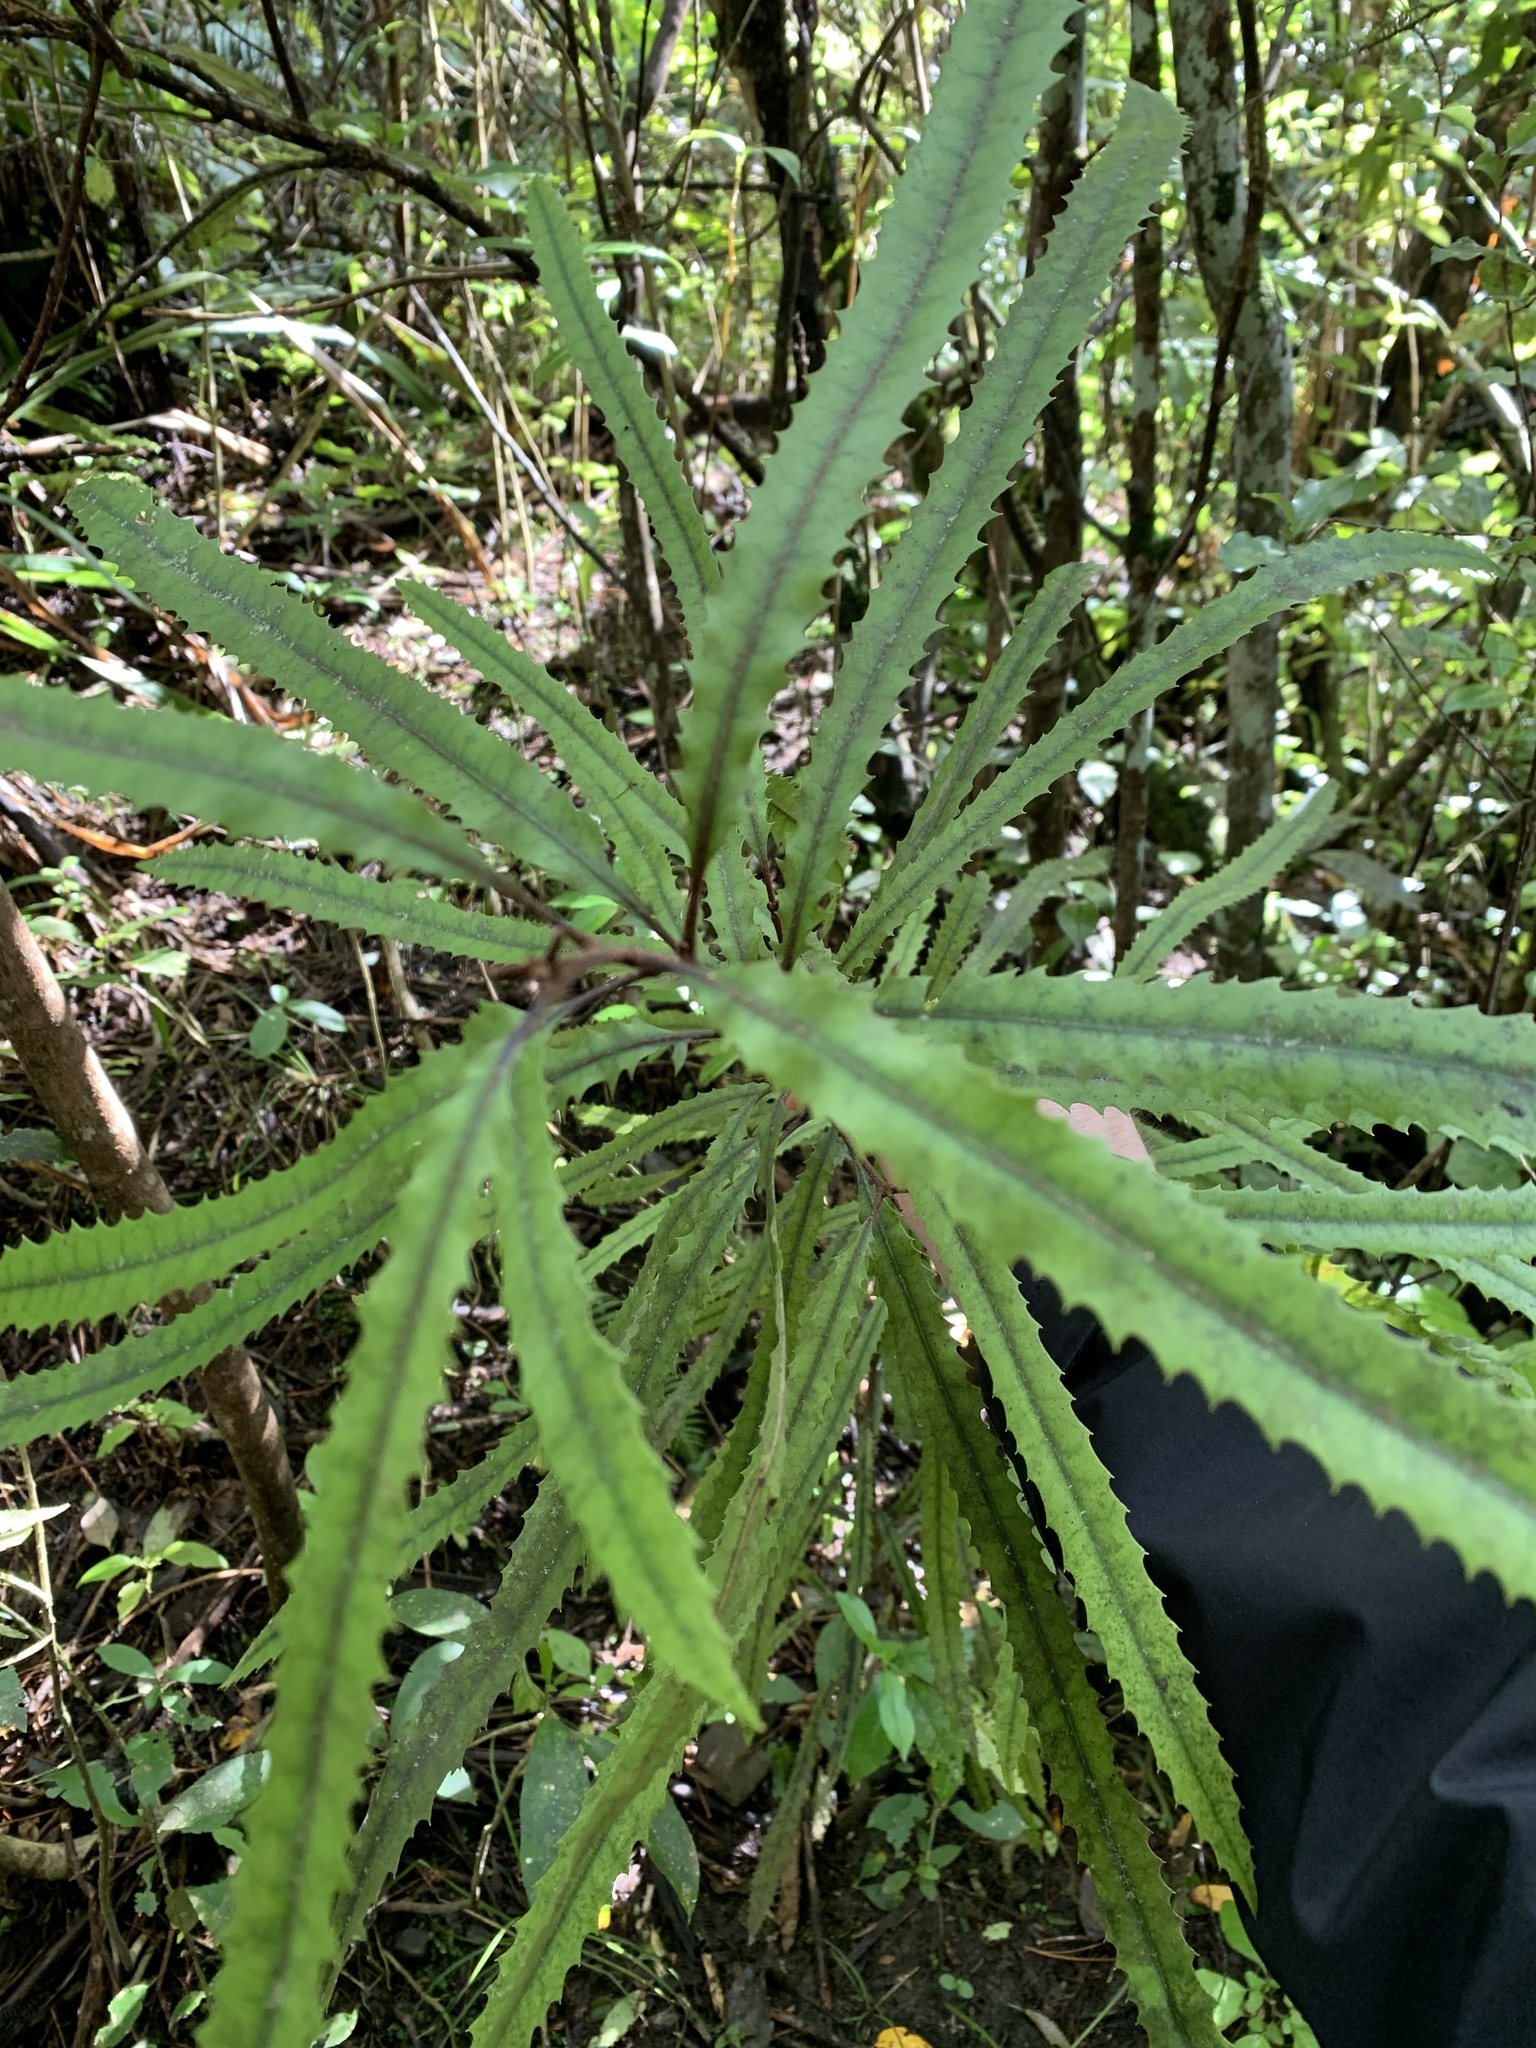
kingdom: Plantae
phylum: Tracheophyta
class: Magnoliopsida
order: Proteales
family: Proteaceae
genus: Knightia
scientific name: Knightia excelsa
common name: New zealand-honeysuckle
